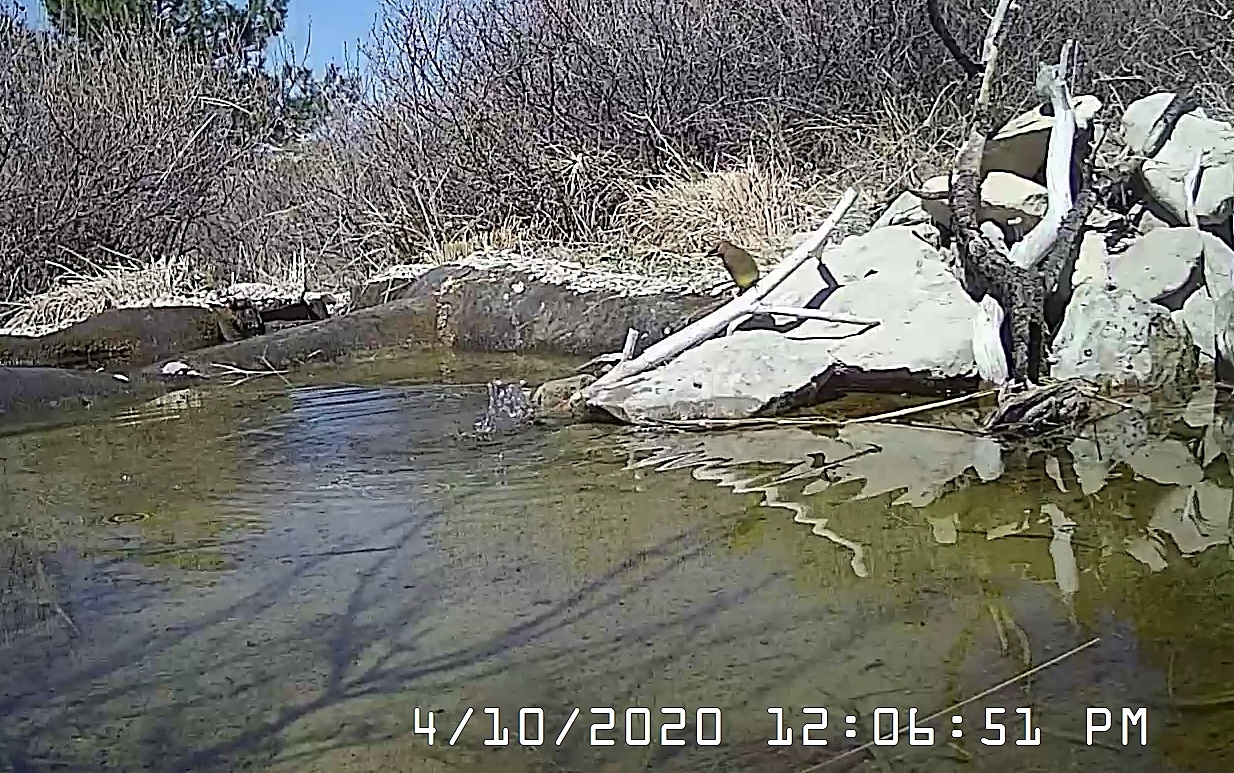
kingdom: Animalia
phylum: Chordata
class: Aves
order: Passeriformes
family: Bombycillidae
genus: Bombycilla
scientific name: Bombycilla cedrorum
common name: Cedar waxwing
